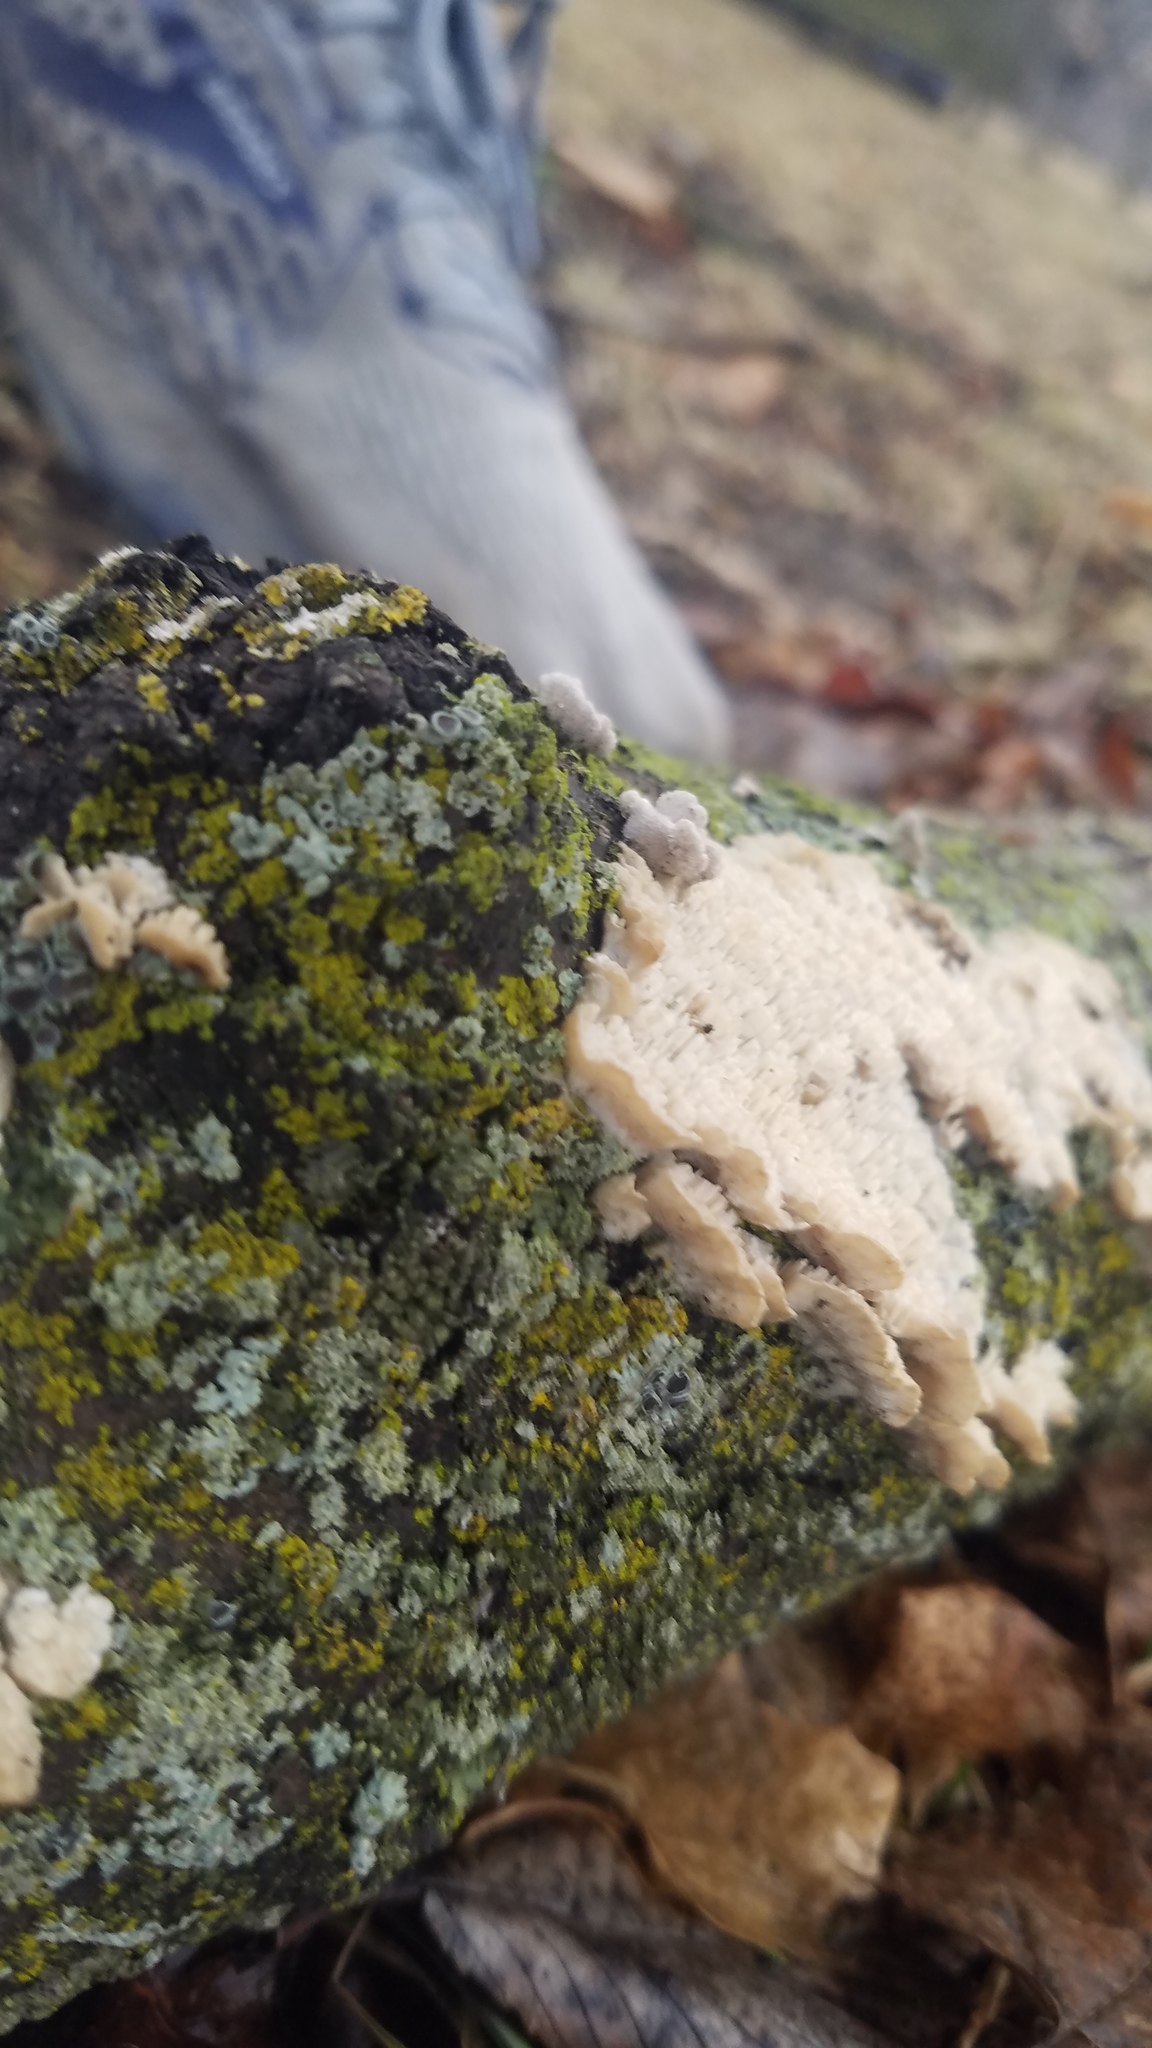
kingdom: Fungi
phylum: Basidiomycota
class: Agaricomycetes
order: Polyporales
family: Irpicaceae
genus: Irpex
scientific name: Irpex lacteus
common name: Milk-white toothed polypore
